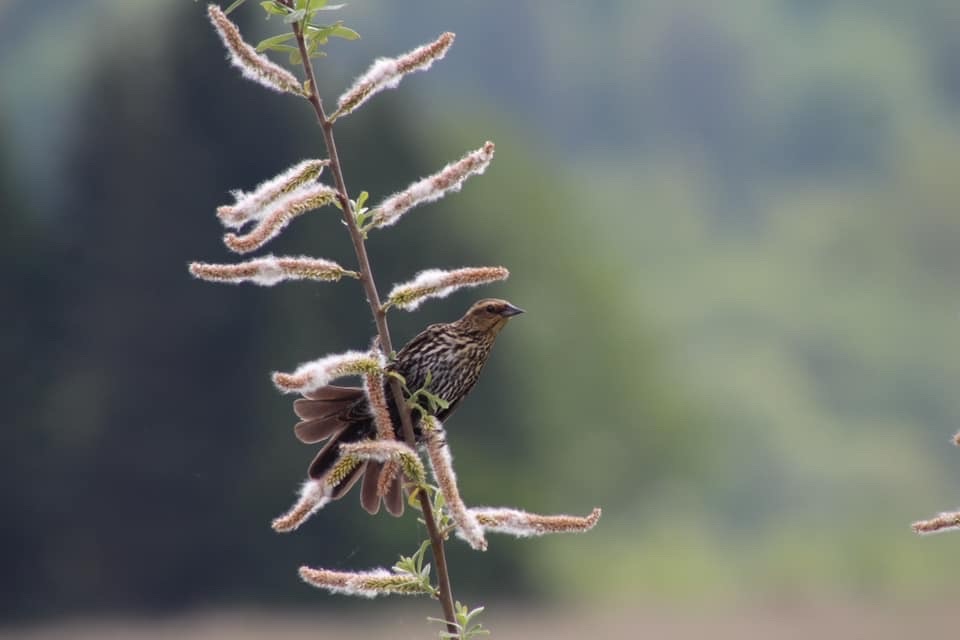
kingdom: Animalia
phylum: Chordata
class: Aves
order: Passeriformes
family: Icteridae
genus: Agelaius
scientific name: Agelaius phoeniceus
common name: Red-winged blackbird
